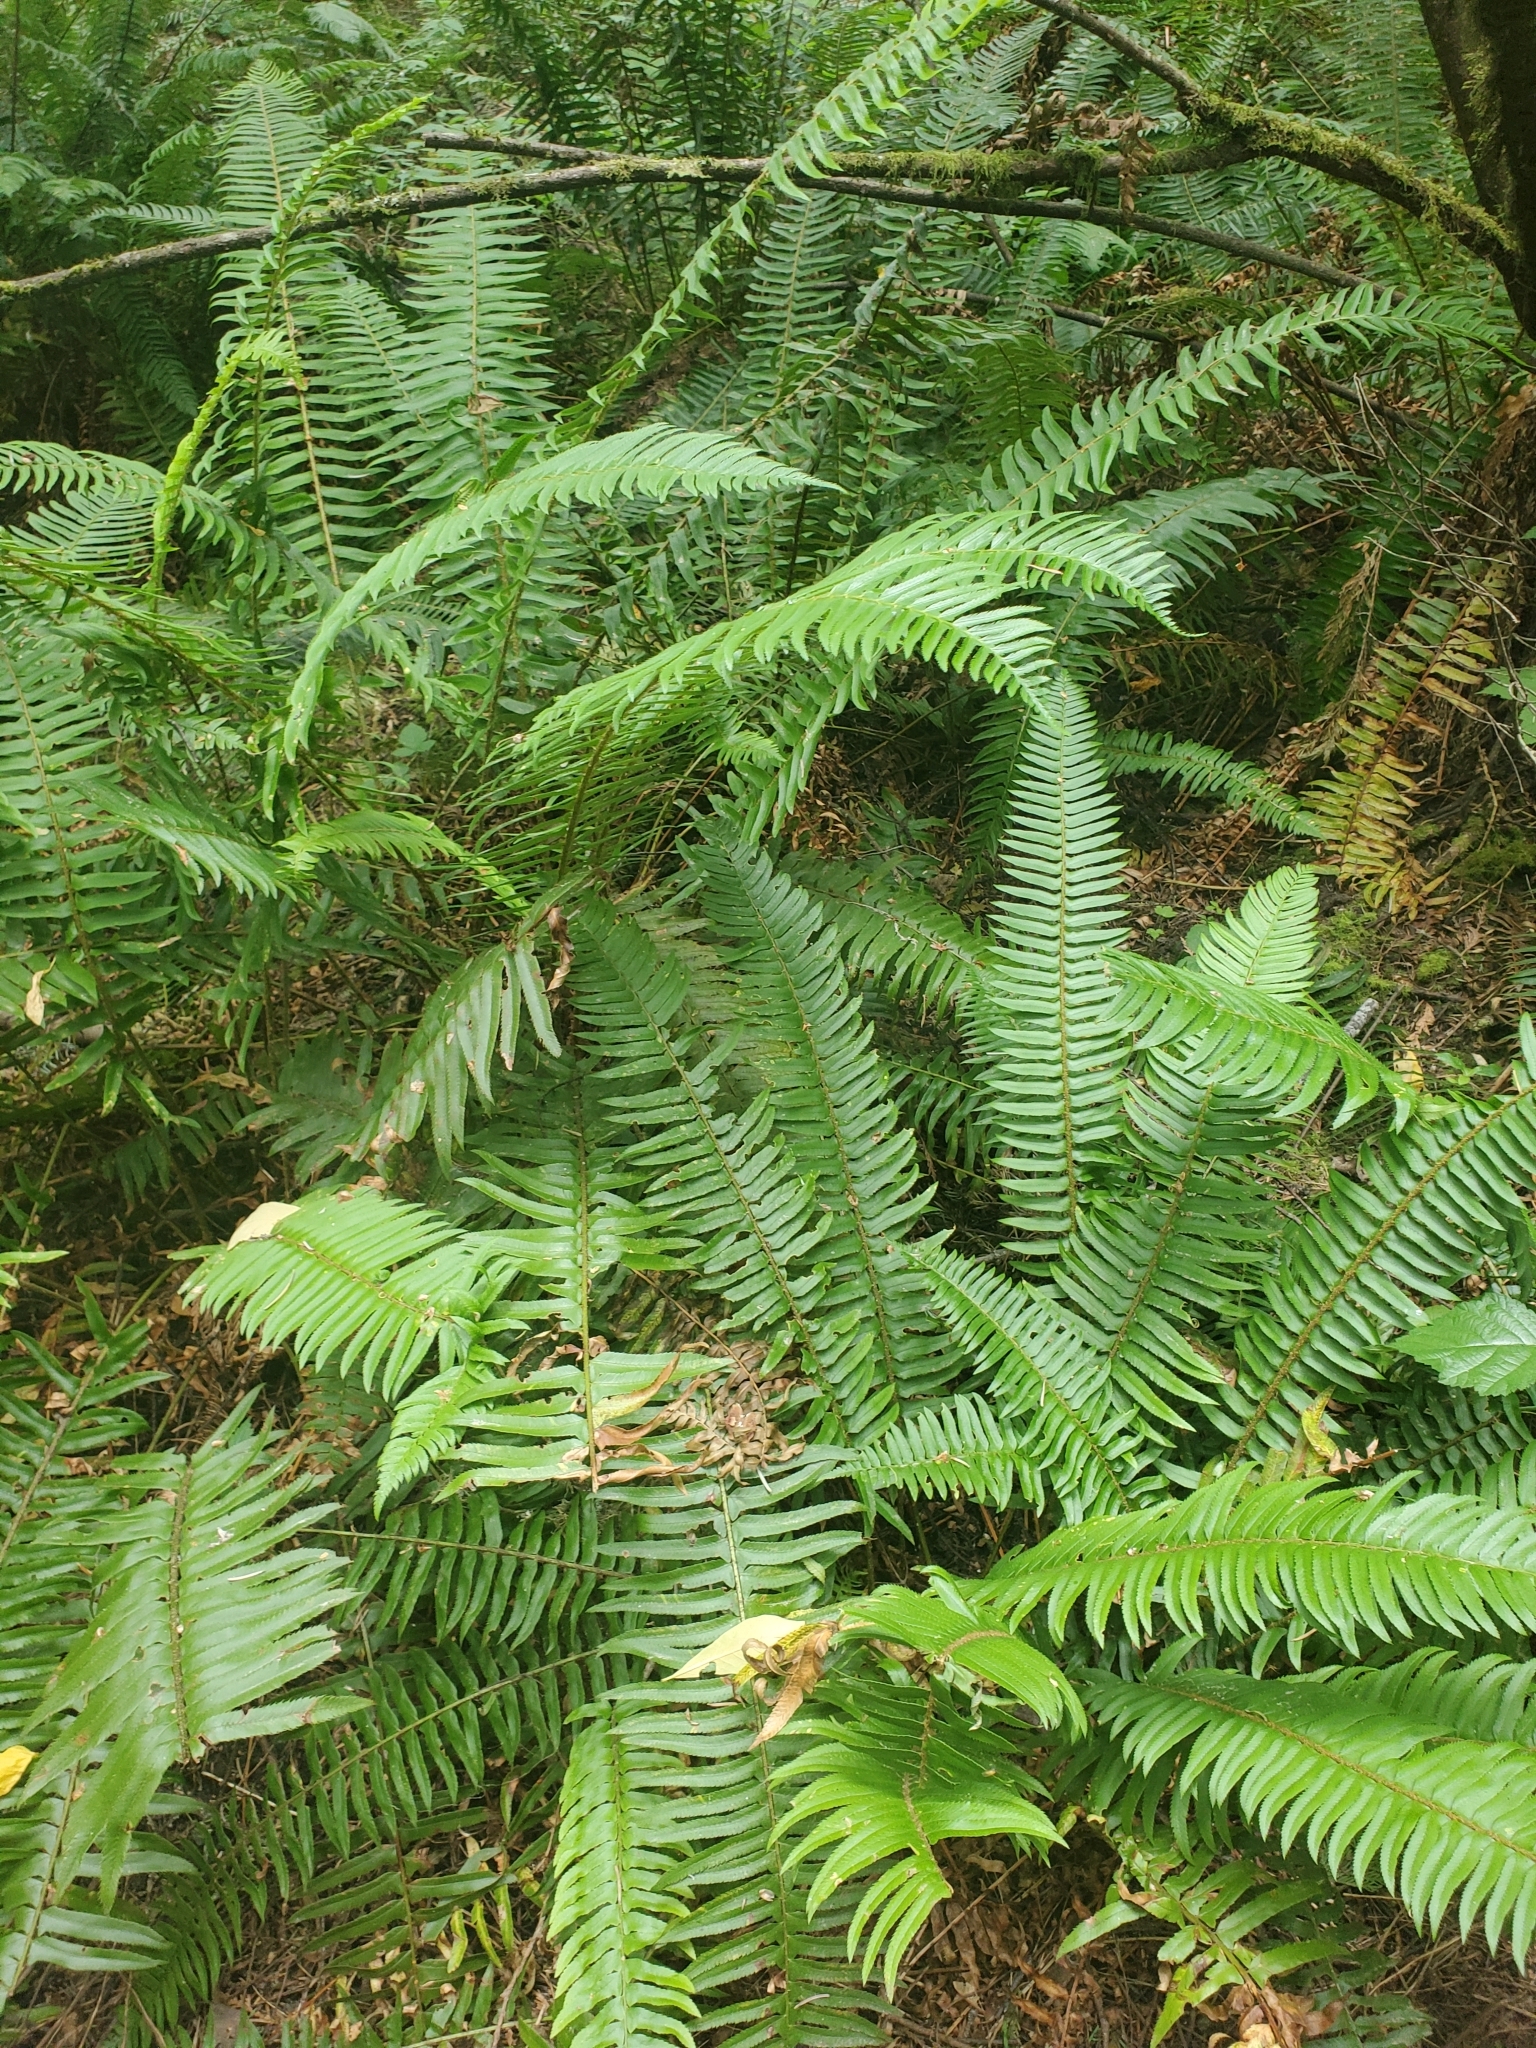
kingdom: Plantae
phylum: Tracheophyta
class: Polypodiopsida
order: Polypodiales
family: Dryopteridaceae
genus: Polystichum
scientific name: Polystichum munitum
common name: Western sword-fern
